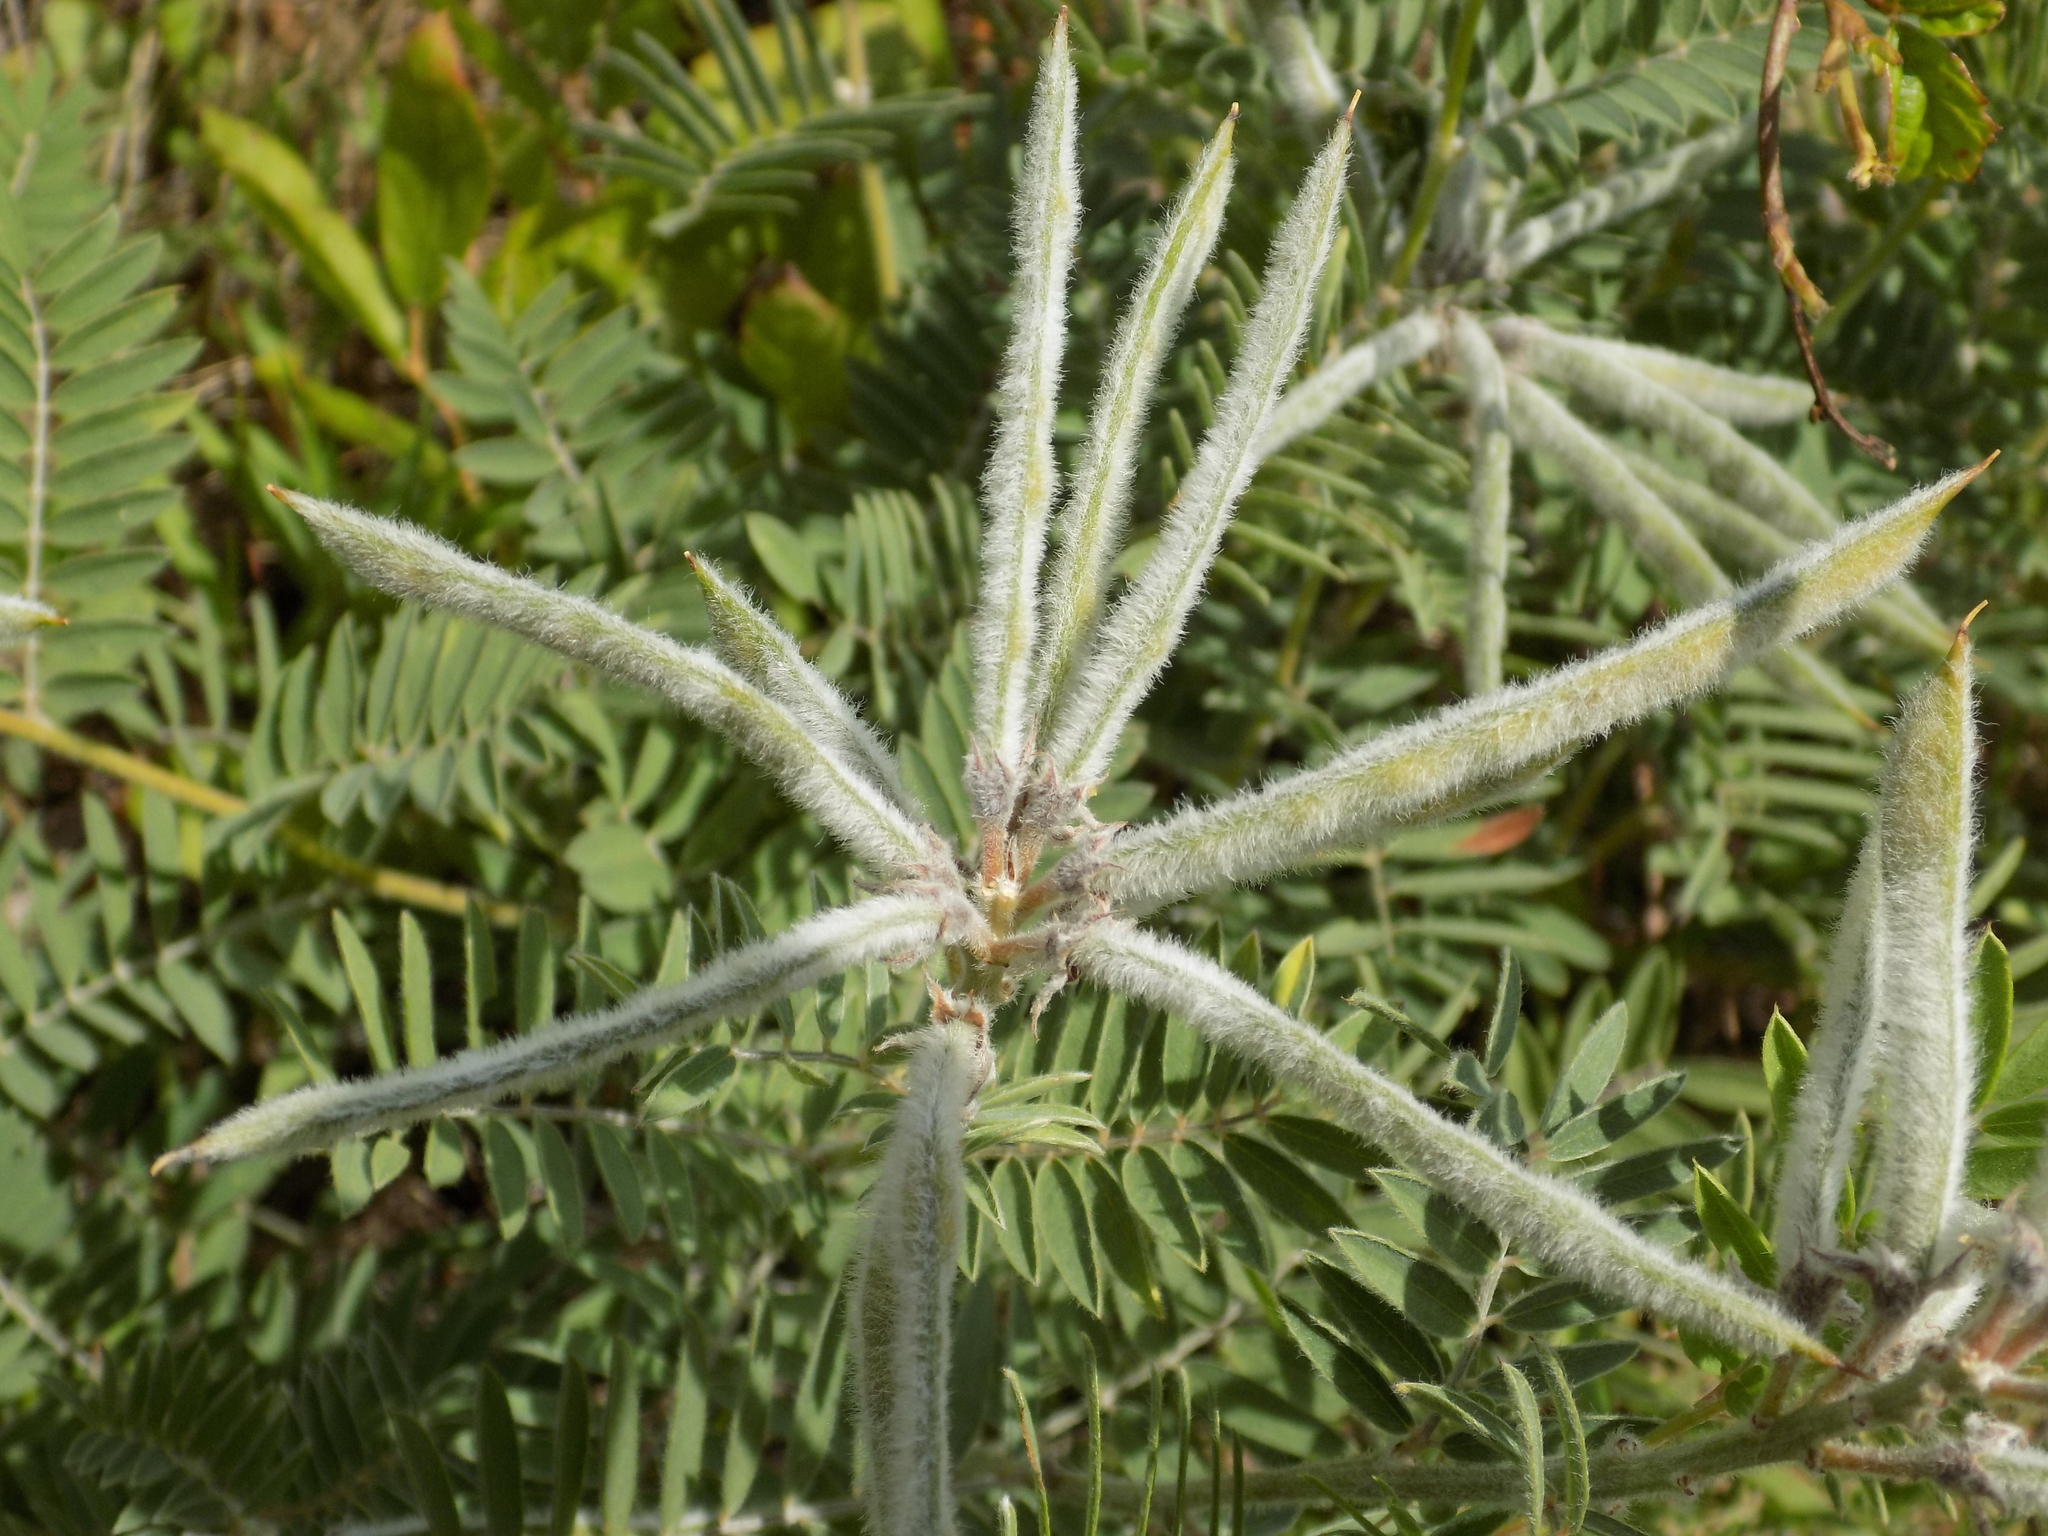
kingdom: Plantae
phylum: Tracheophyta
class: Magnoliopsida
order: Fabales
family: Fabaceae
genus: Tephrosia
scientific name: Tephrosia virginiana
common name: Rabbit-pea
